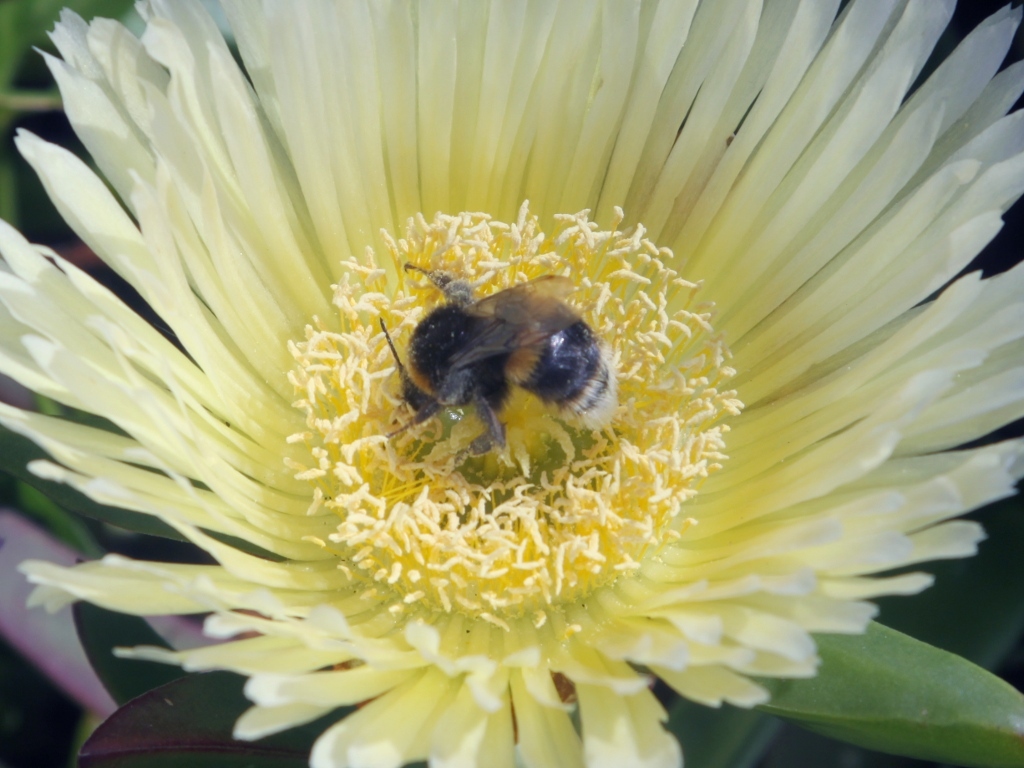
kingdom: Animalia
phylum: Arthropoda
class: Insecta
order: Hymenoptera
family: Apidae
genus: Bombus
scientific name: Bombus terrestris
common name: Buff-tailed bumblebee
